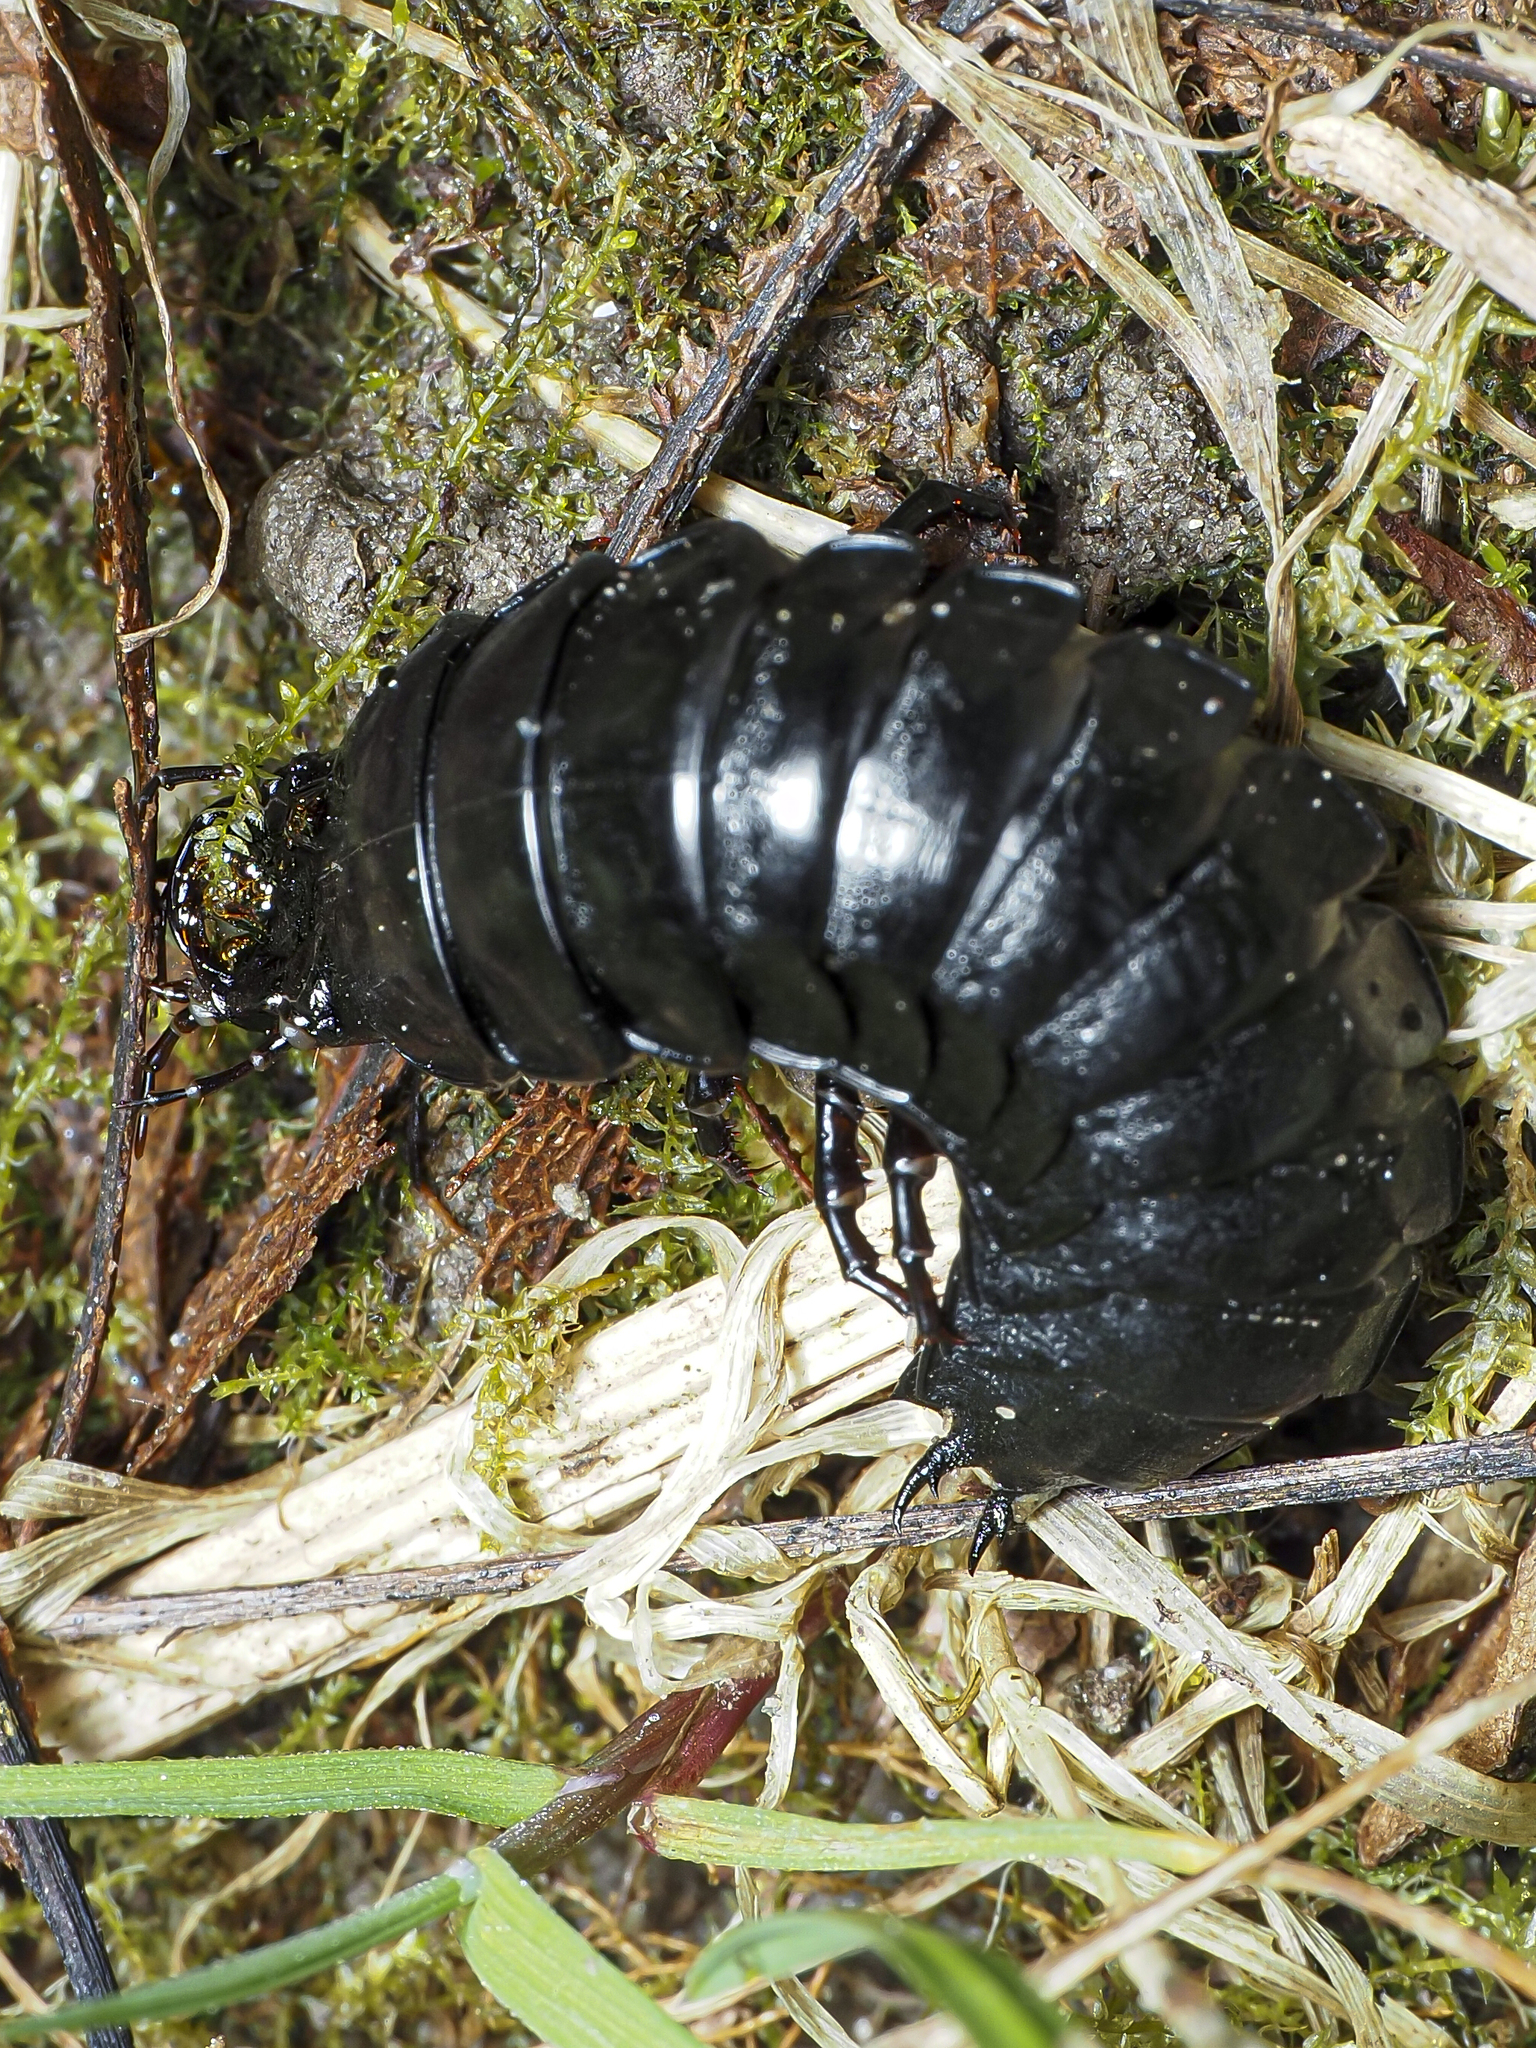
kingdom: Animalia
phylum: Arthropoda
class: Insecta
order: Coleoptera
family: Carabidae
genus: Carabus
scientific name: Carabus
